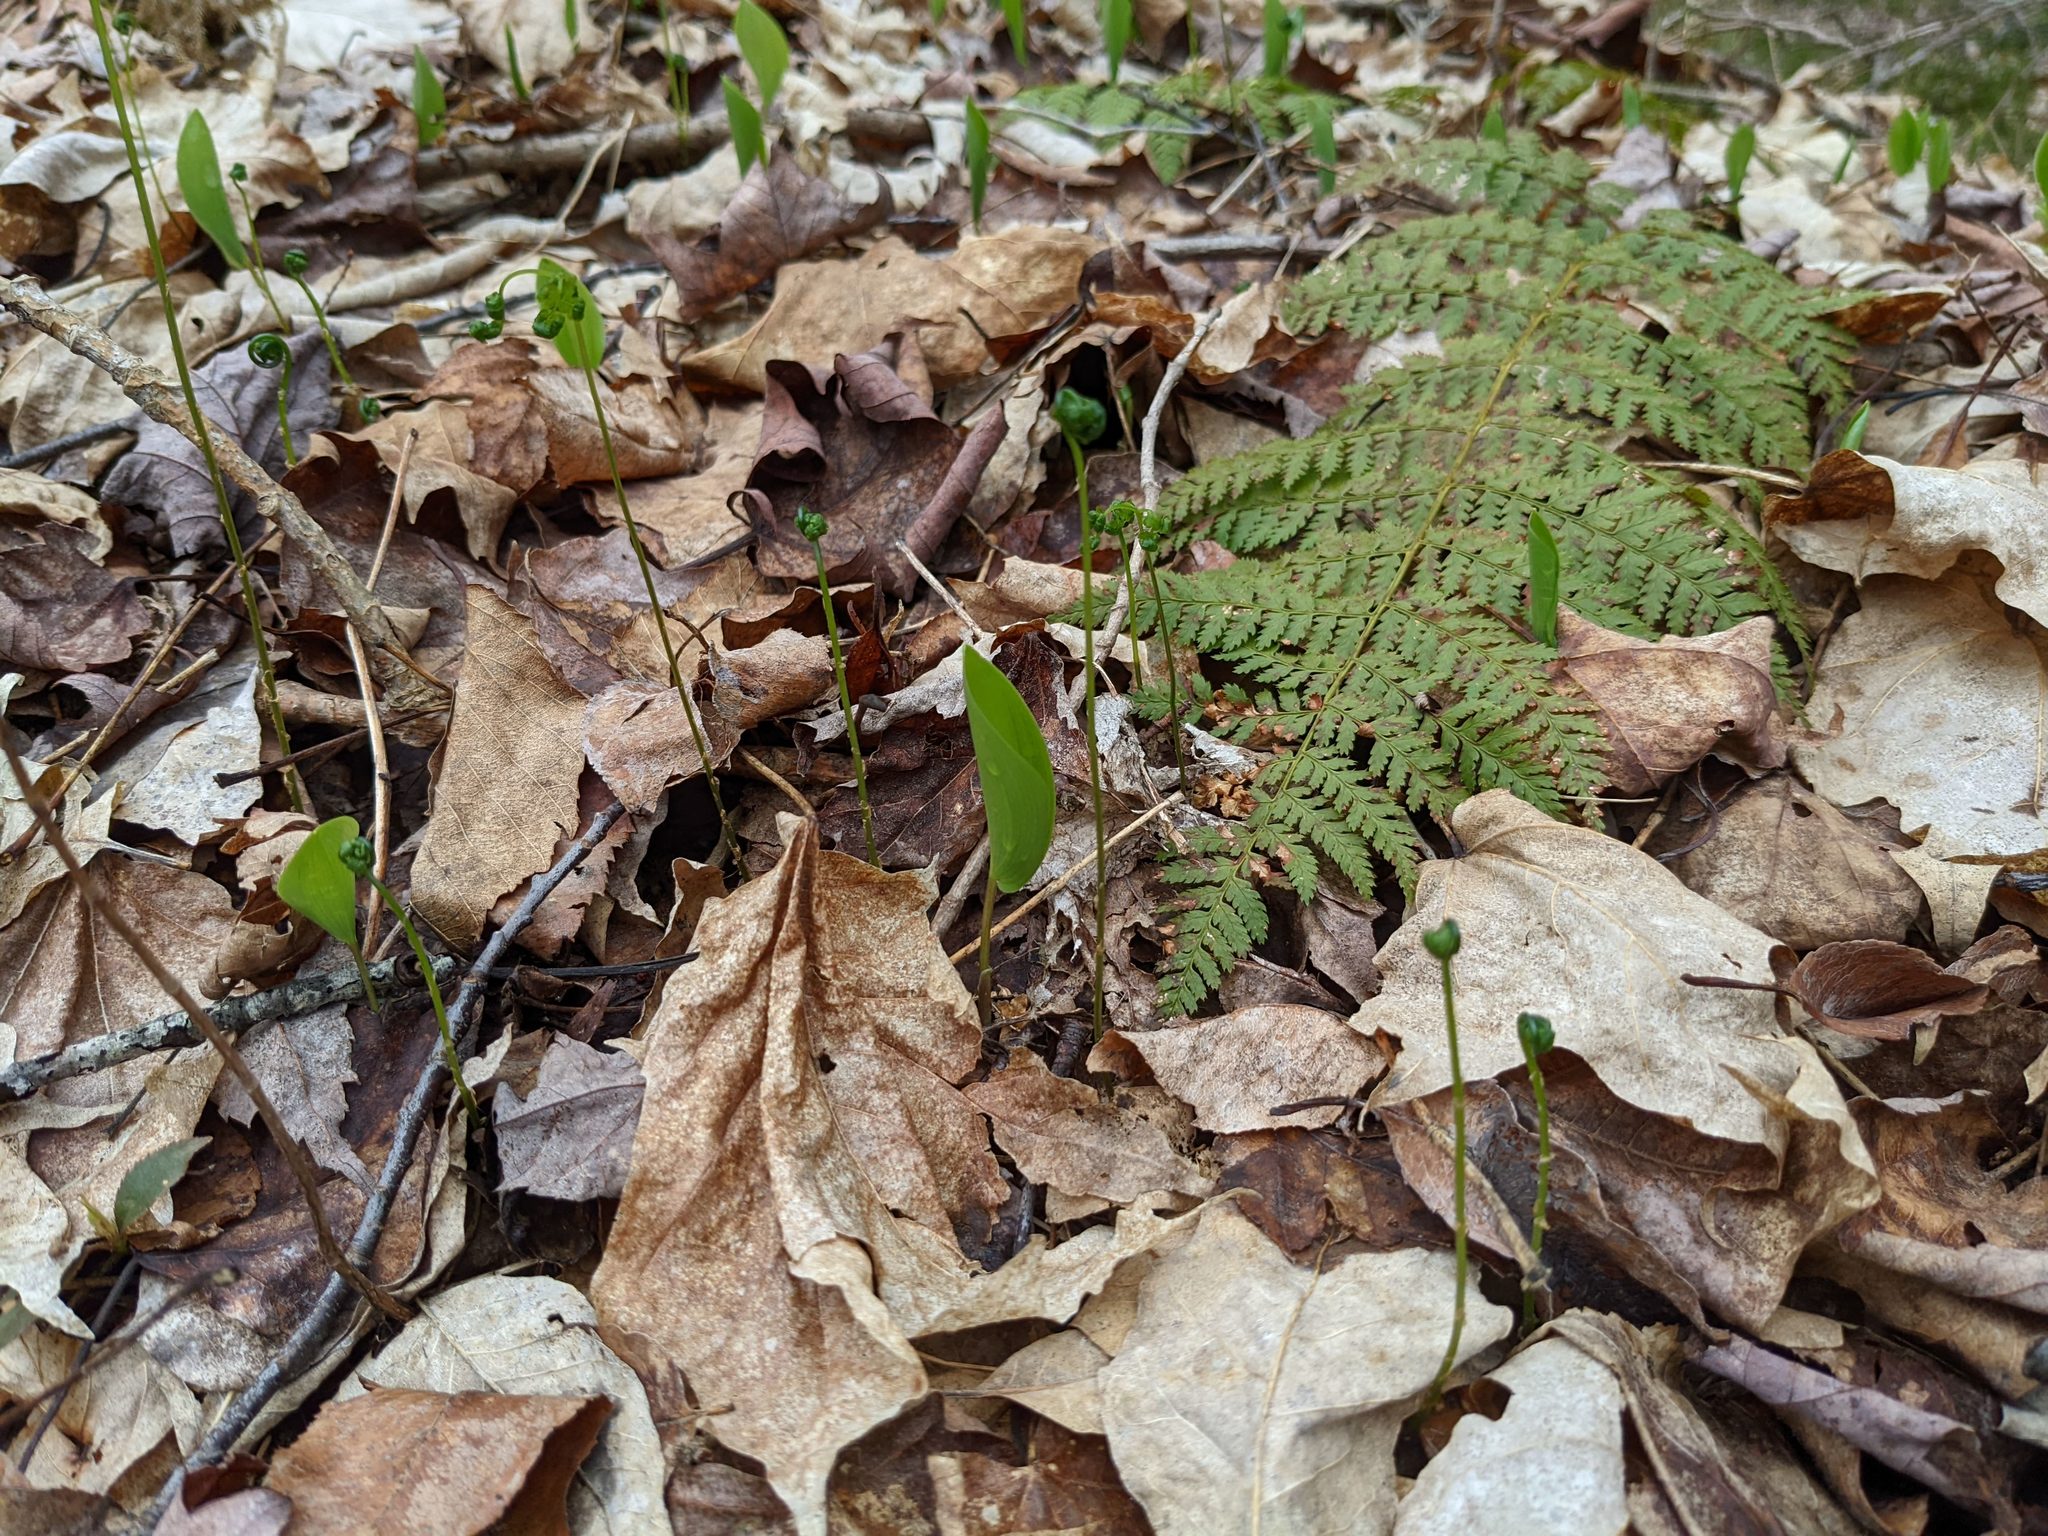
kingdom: Plantae
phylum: Tracheophyta
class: Polypodiopsida
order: Polypodiales
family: Dryopteridaceae
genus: Dryopteris
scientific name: Dryopteris intermedia
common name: Evergreen wood fern
